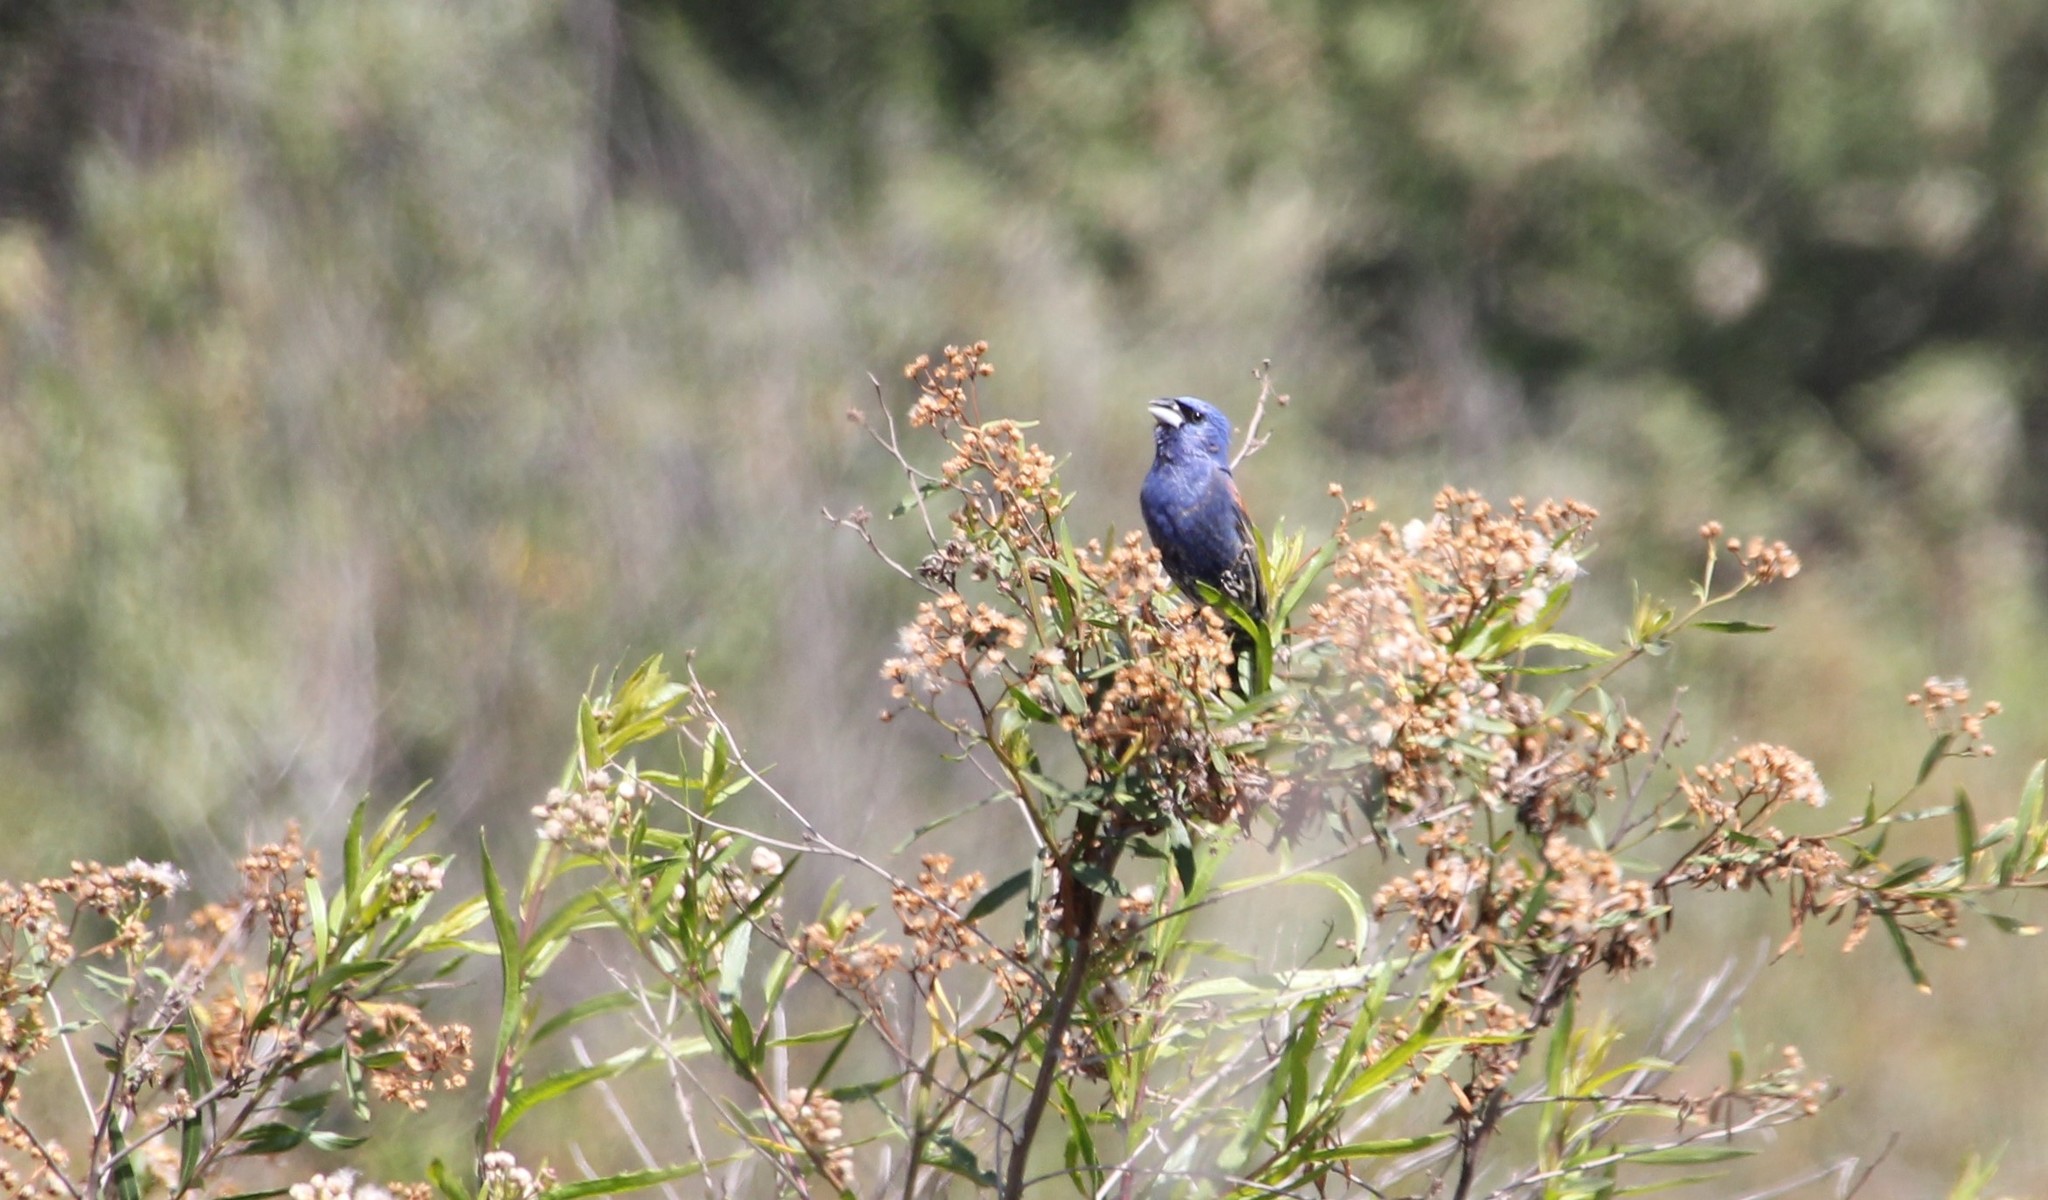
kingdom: Animalia
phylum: Chordata
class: Aves
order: Passeriformes
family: Cardinalidae
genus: Passerina
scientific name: Passerina caerulea
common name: Blue grosbeak
